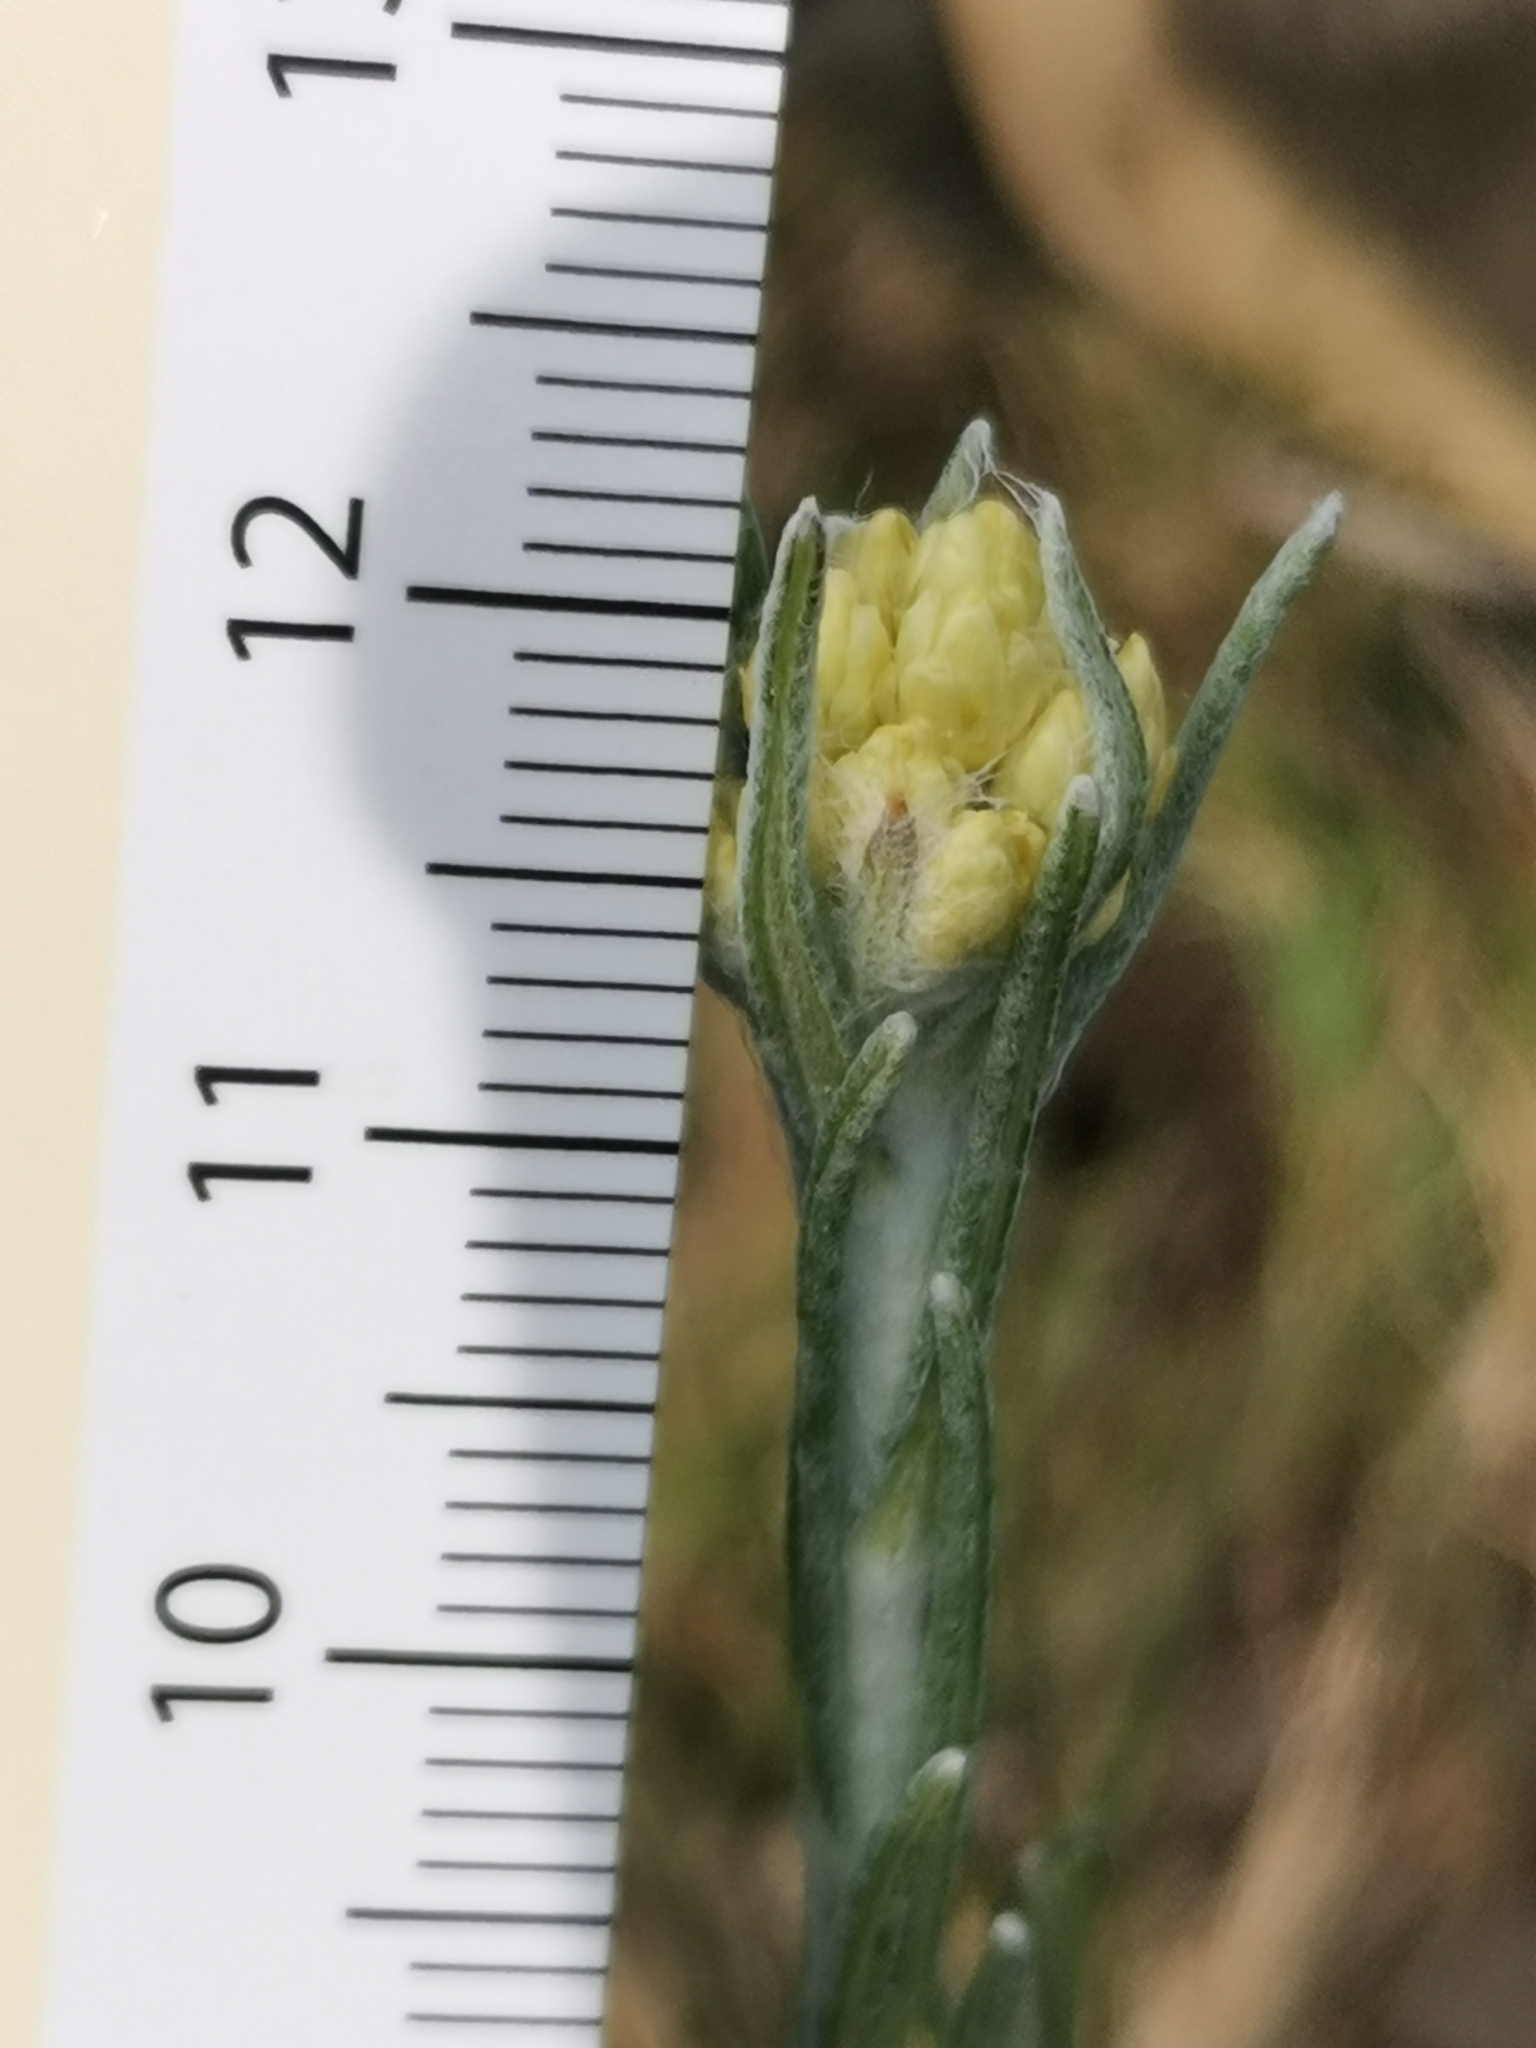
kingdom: Plantae
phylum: Tracheophyta
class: Magnoliopsida
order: Asterales
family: Asteraceae
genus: Helichrysum
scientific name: Helichrysum stoechas
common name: Goldilocks
